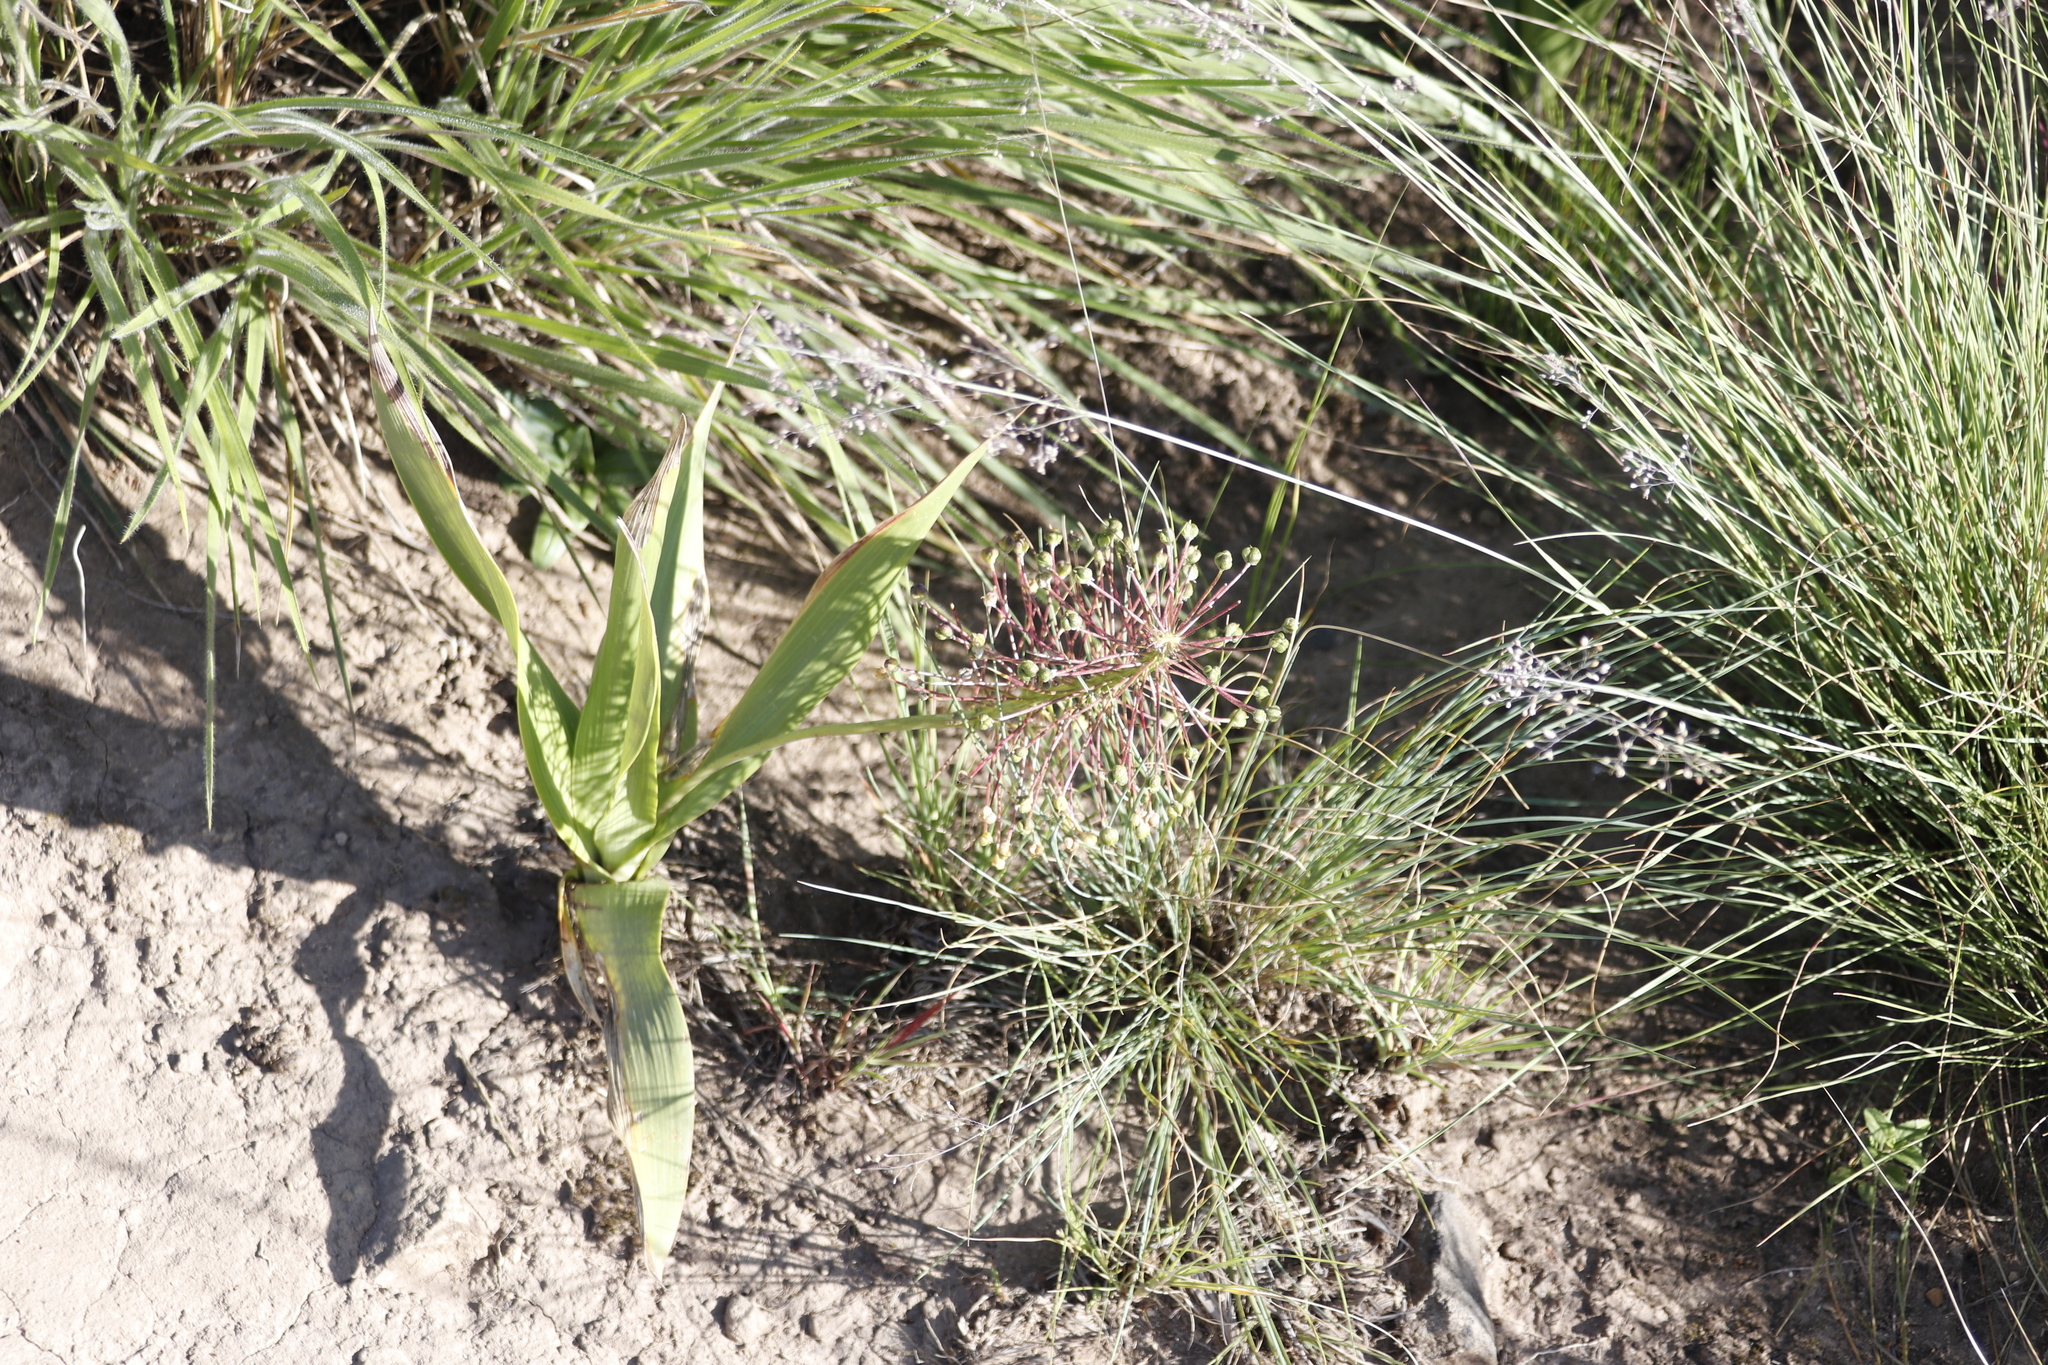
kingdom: Plantae
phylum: Tracheophyta
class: Liliopsida
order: Asparagales
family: Asparagaceae
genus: Schizocarphus
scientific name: Schizocarphus nervosus
